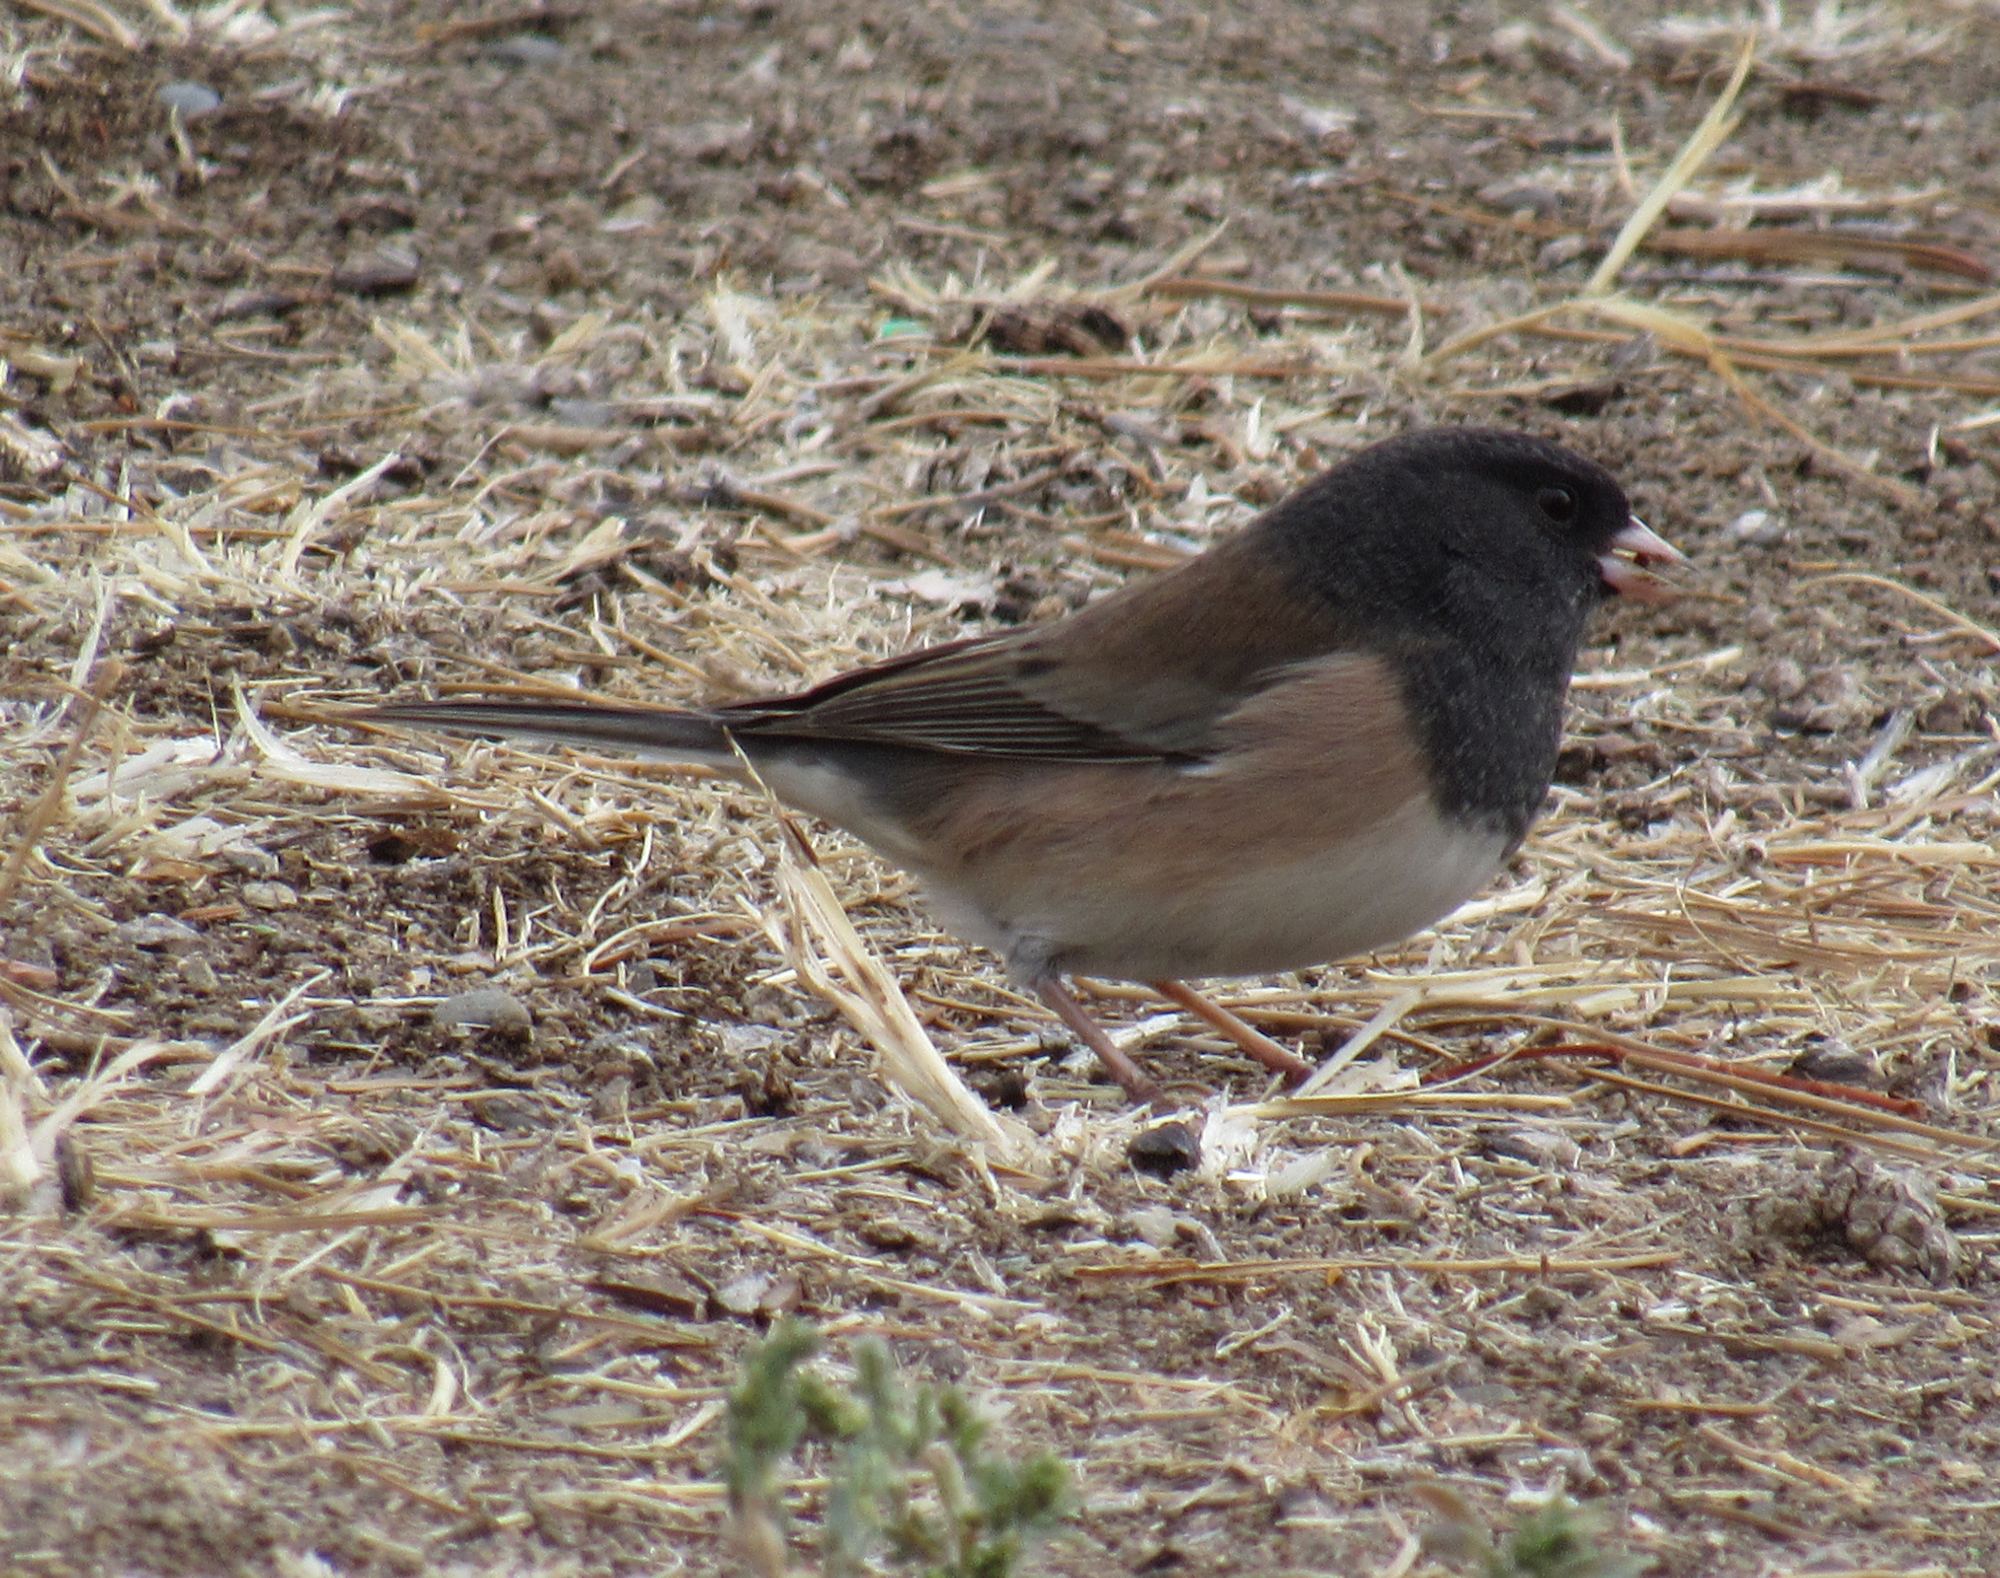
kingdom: Animalia
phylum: Chordata
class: Aves
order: Passeriformes
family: Passerellidae
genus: Junco
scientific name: Junco hyemalis
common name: Dark-eyed junco
